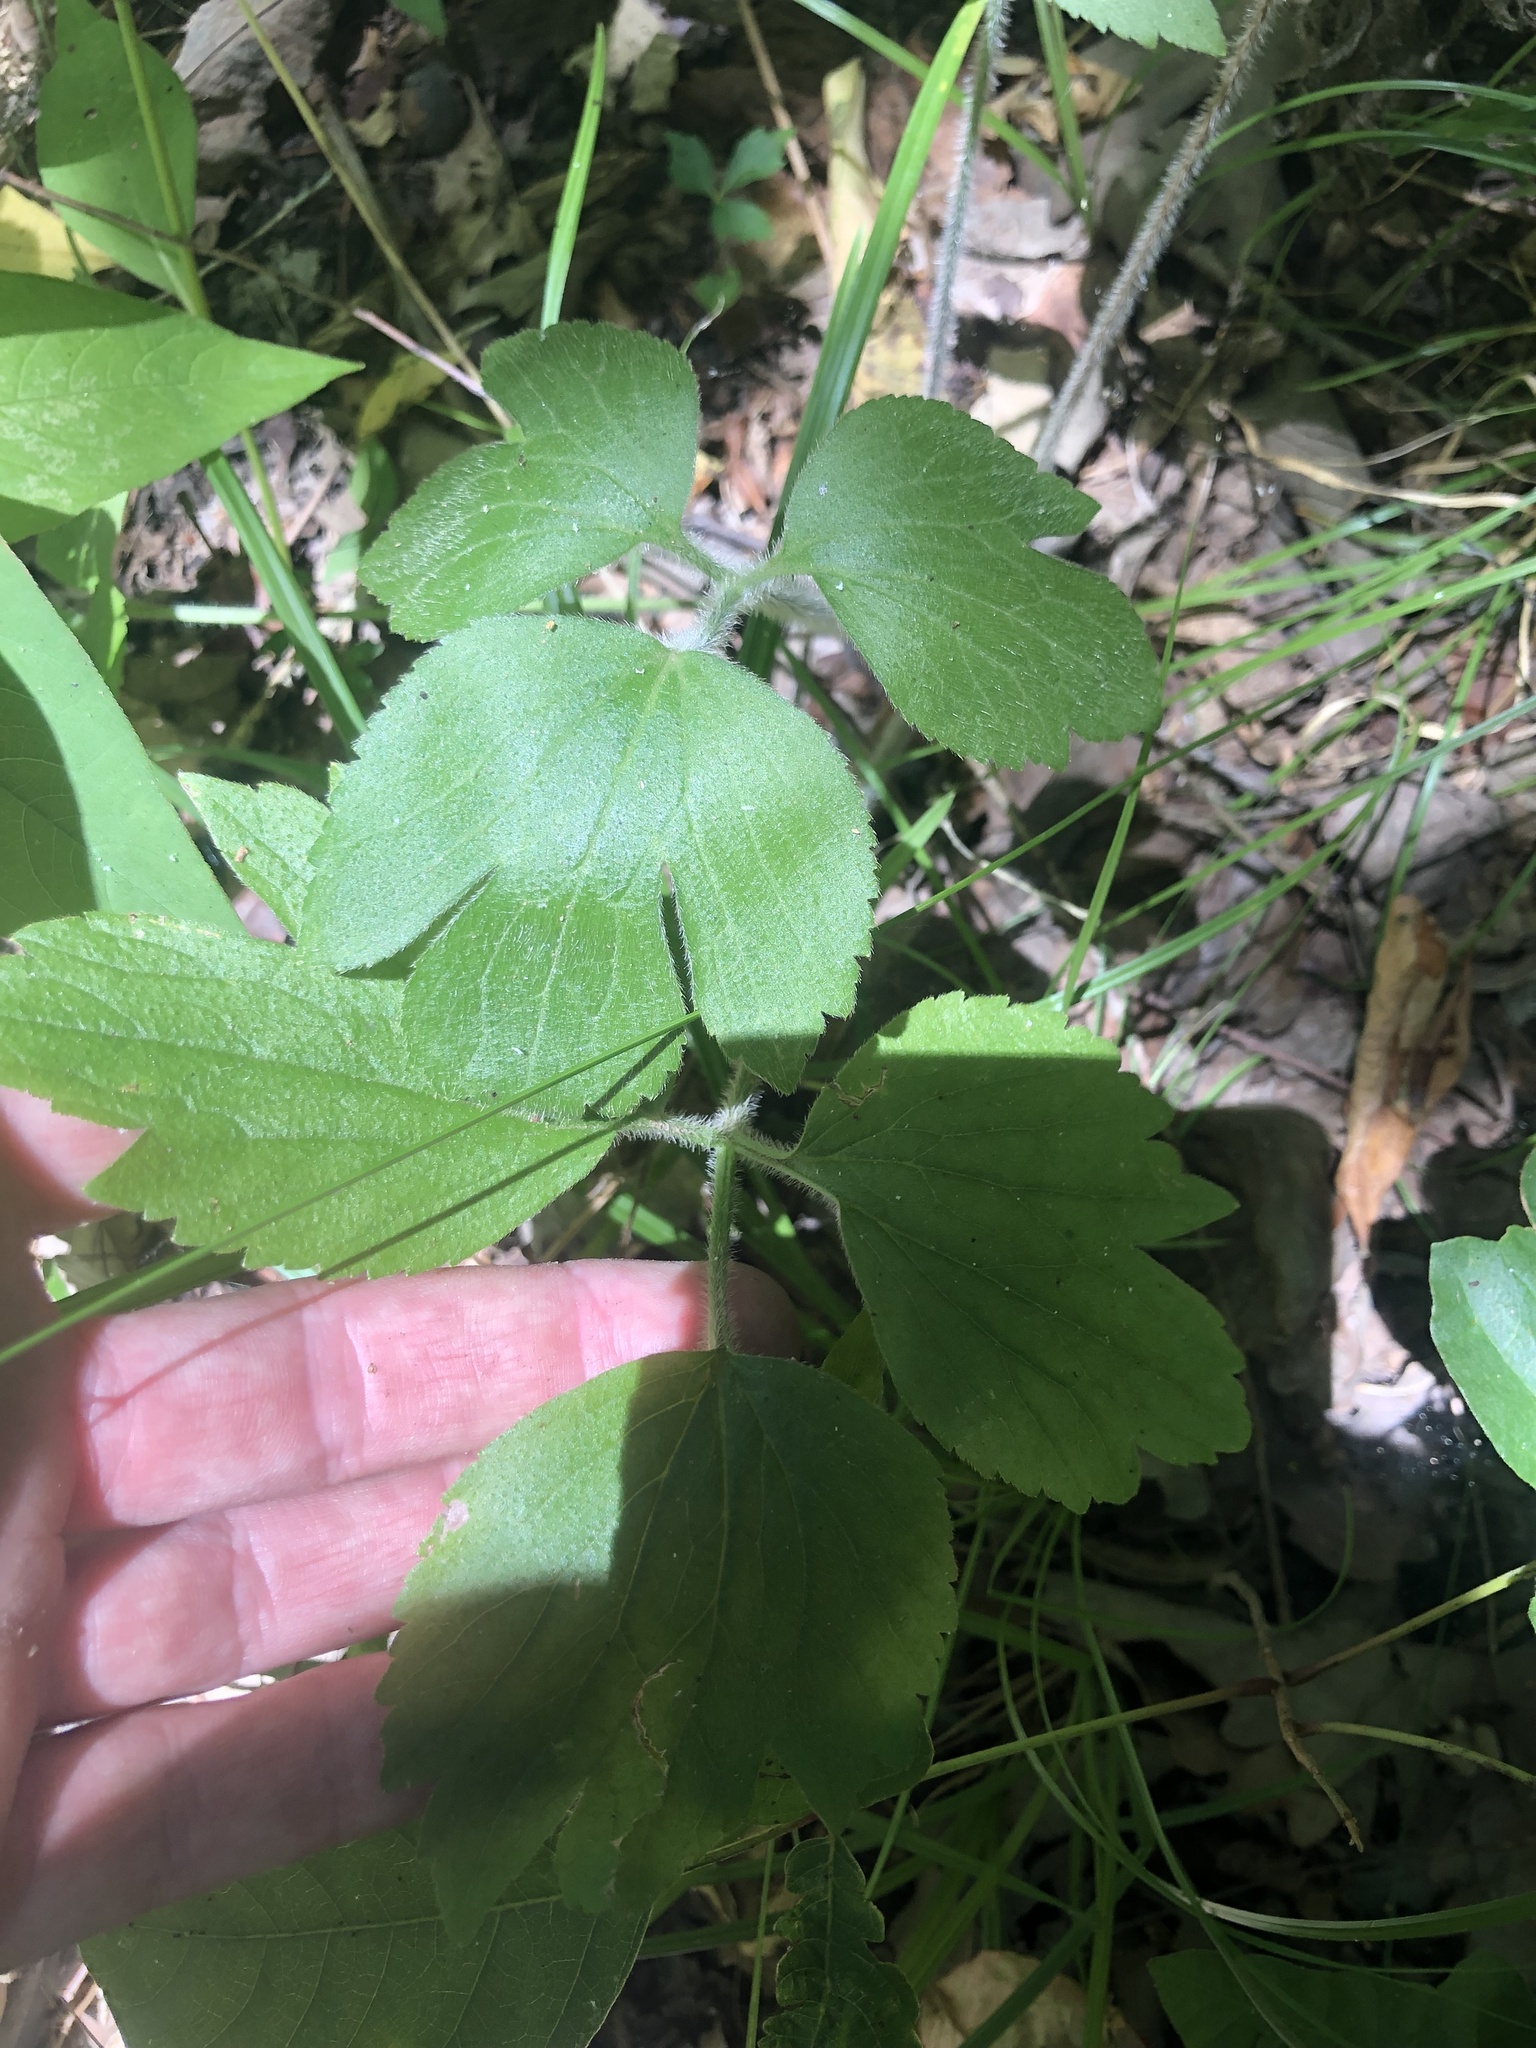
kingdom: Plantae
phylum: Tracheophyta
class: Magnoliopsida
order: Ranunculales
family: Ranunculaceae
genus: Anemone
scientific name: Anemone virginiana
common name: Tall anemone
